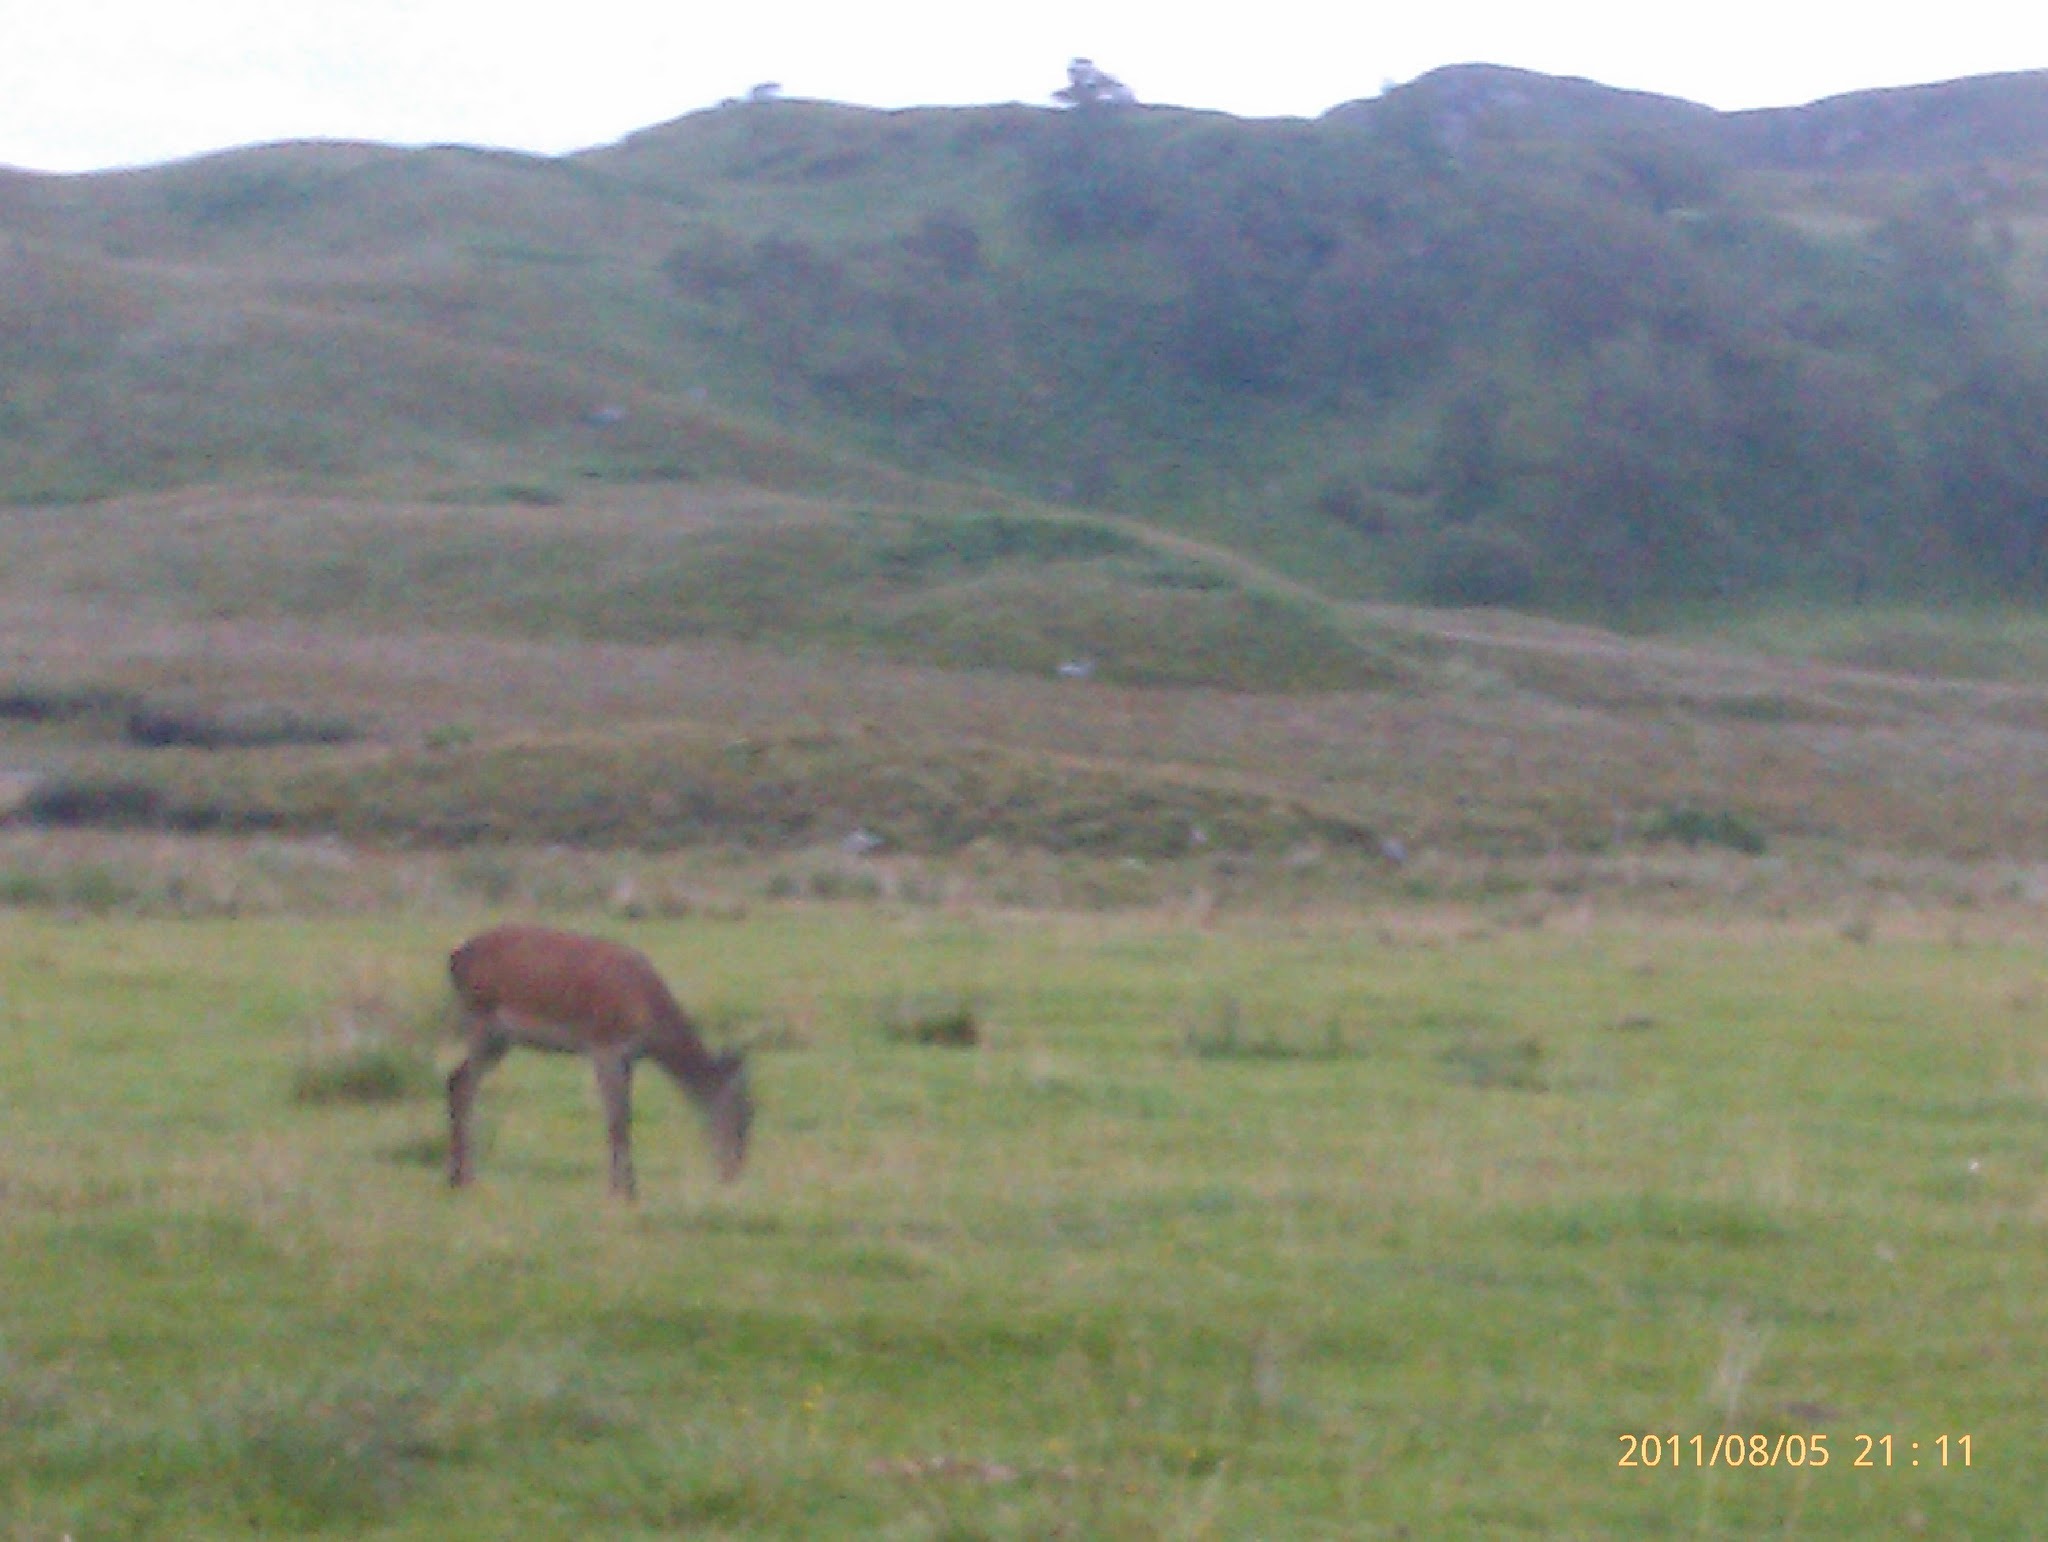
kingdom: Animalia
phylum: Chordata
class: Mammalia
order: Artiodactyla
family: Cervidae
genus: Cervus
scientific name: Cervus elaphus
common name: Red deer
